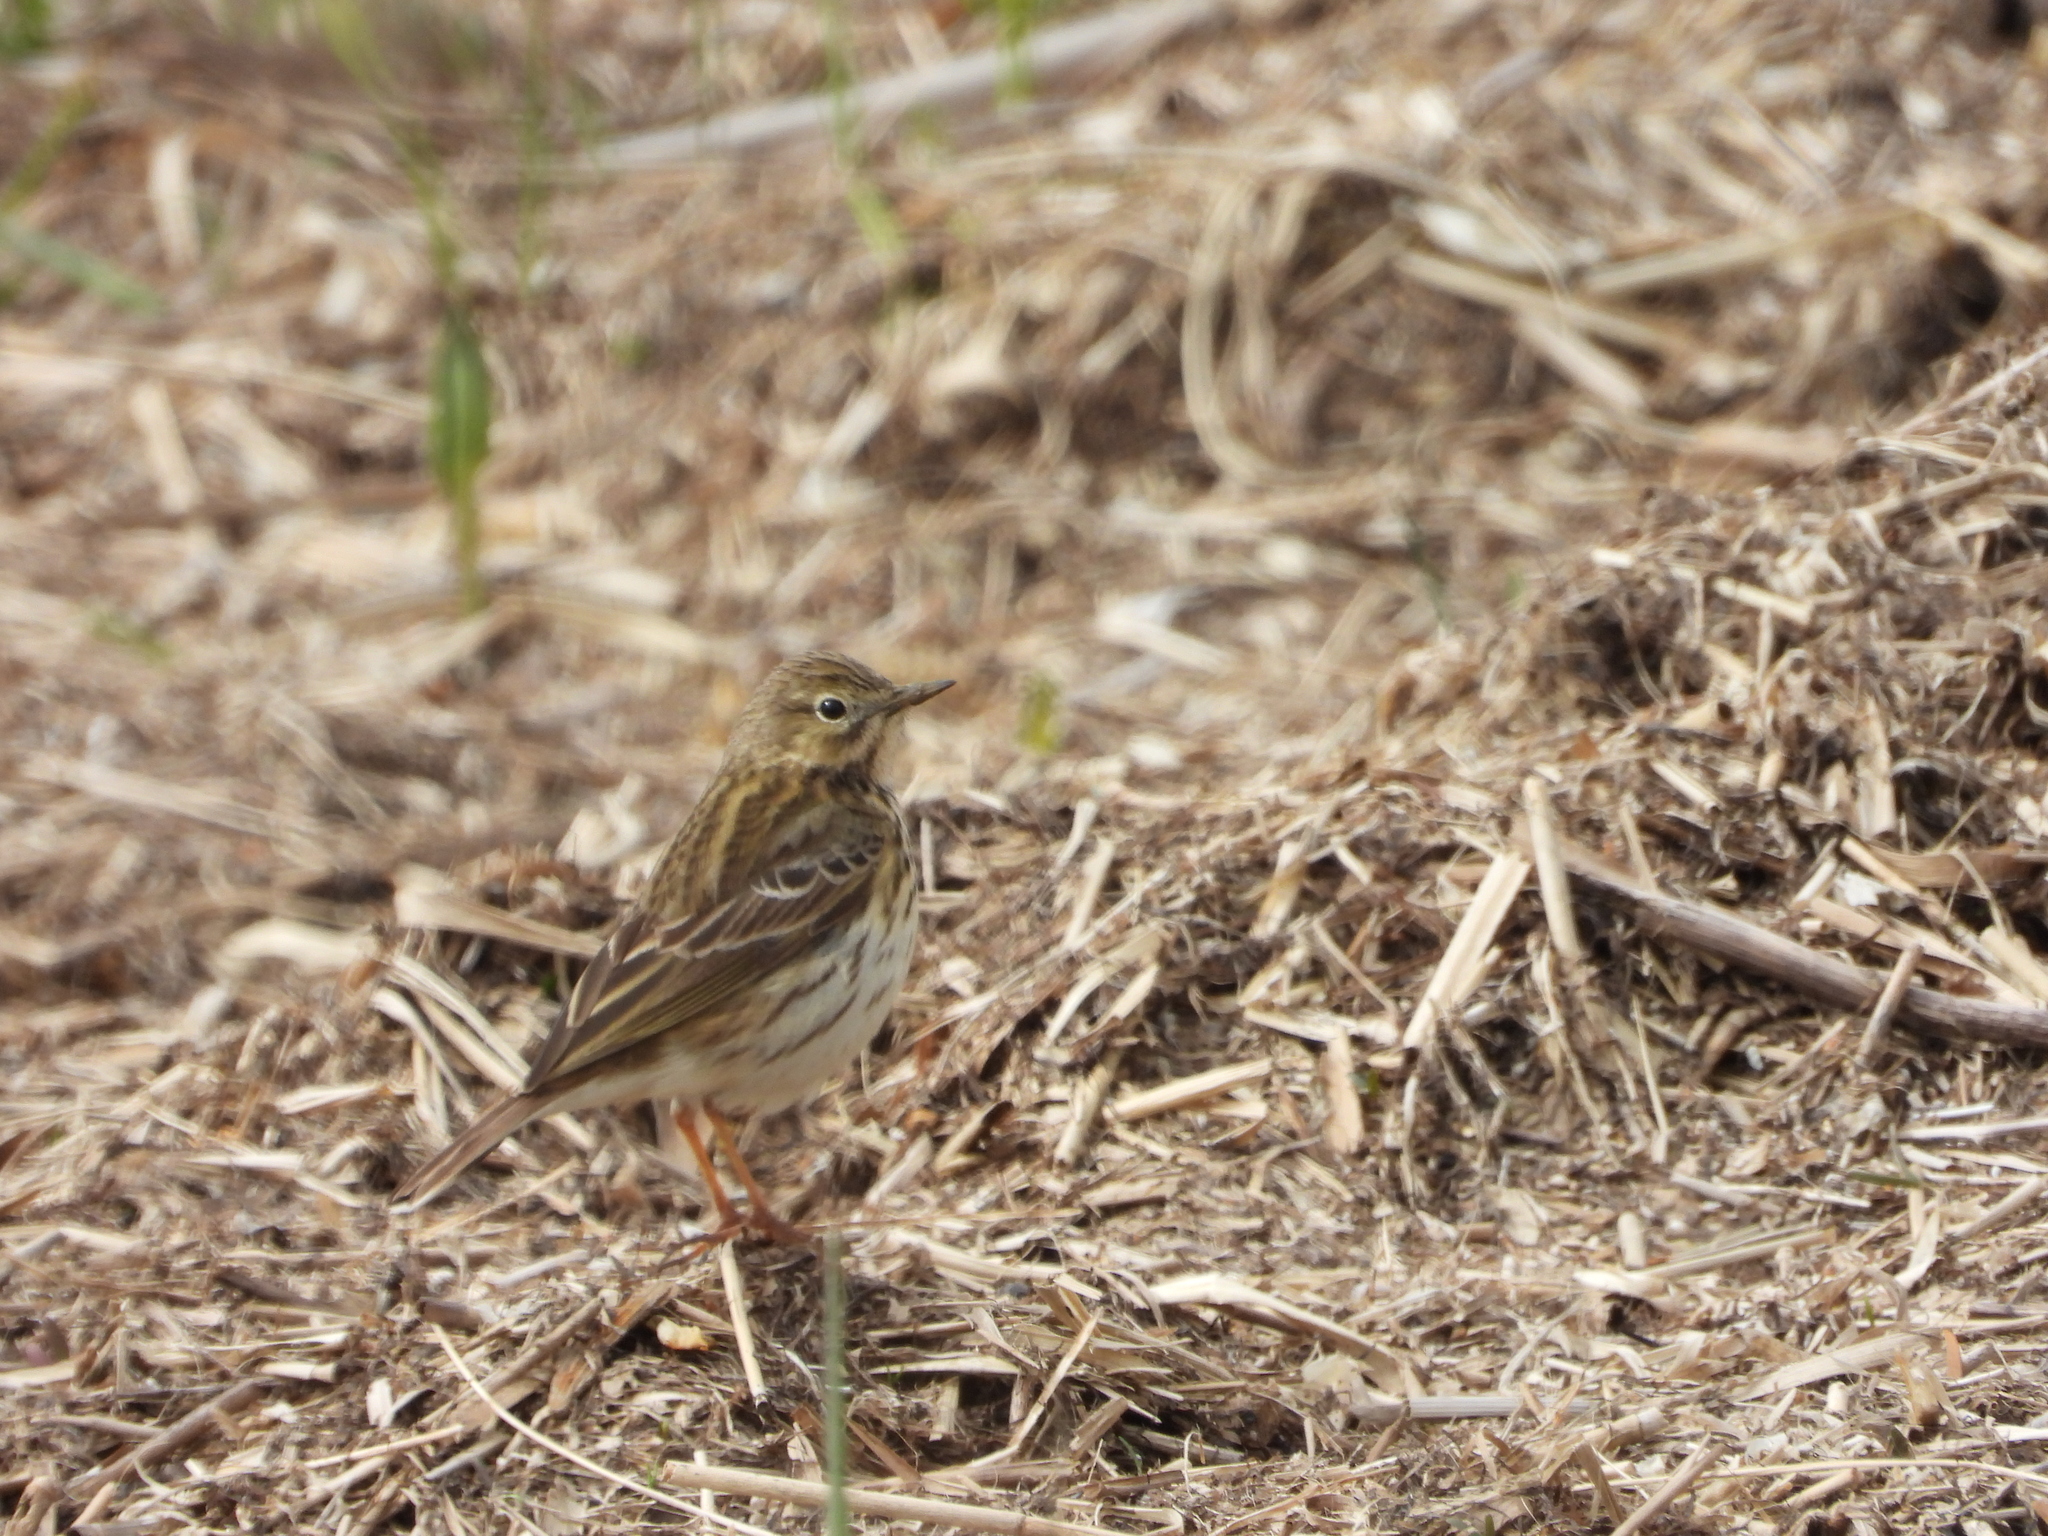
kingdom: Animalia
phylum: Chordata
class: Aves
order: Passeriformes
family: Motacillidae
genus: Anthus
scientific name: Anthus pratensis
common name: Meadow pipit
